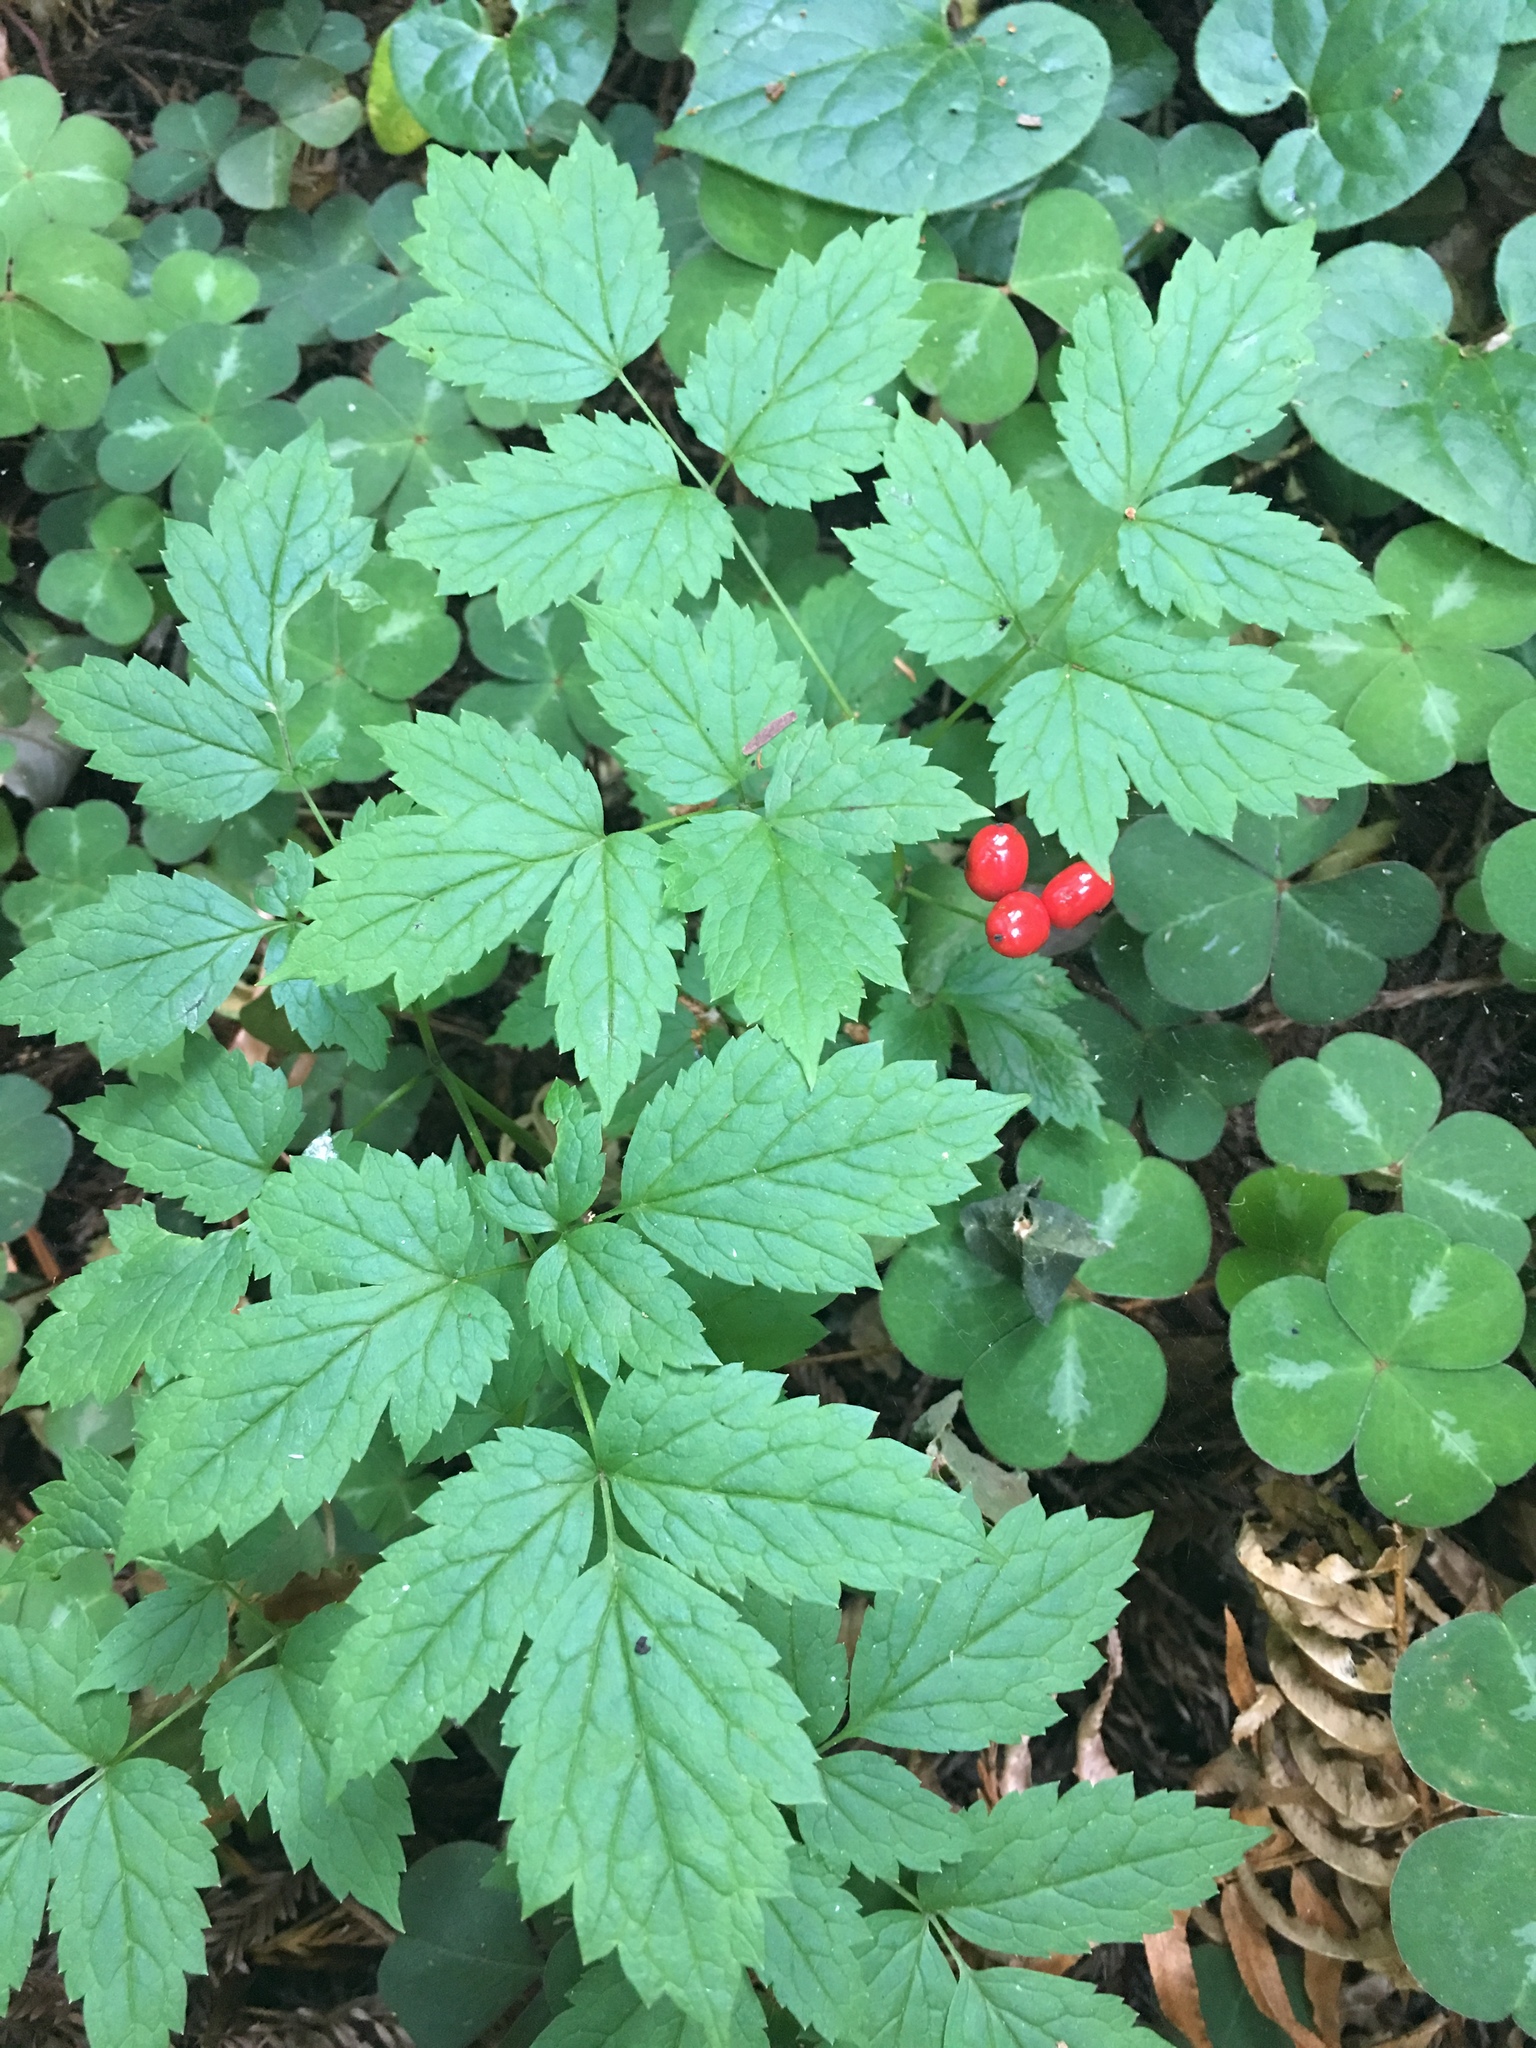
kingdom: Plantae
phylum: Tracheophyta
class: Magnoliopsida
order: Ranunculales
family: Ranunculaceae
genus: Actaea
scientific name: Actaea rubra
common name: Red baneberry
